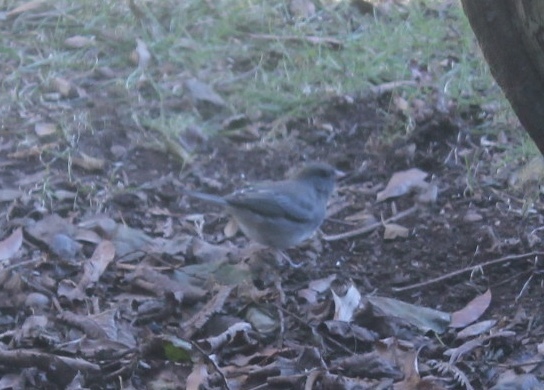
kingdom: Animalia
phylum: Chordata
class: Aves
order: Passeriformes
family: Passerellidae
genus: Junco
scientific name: Junco hyemalis
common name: Dark-eyed junco
